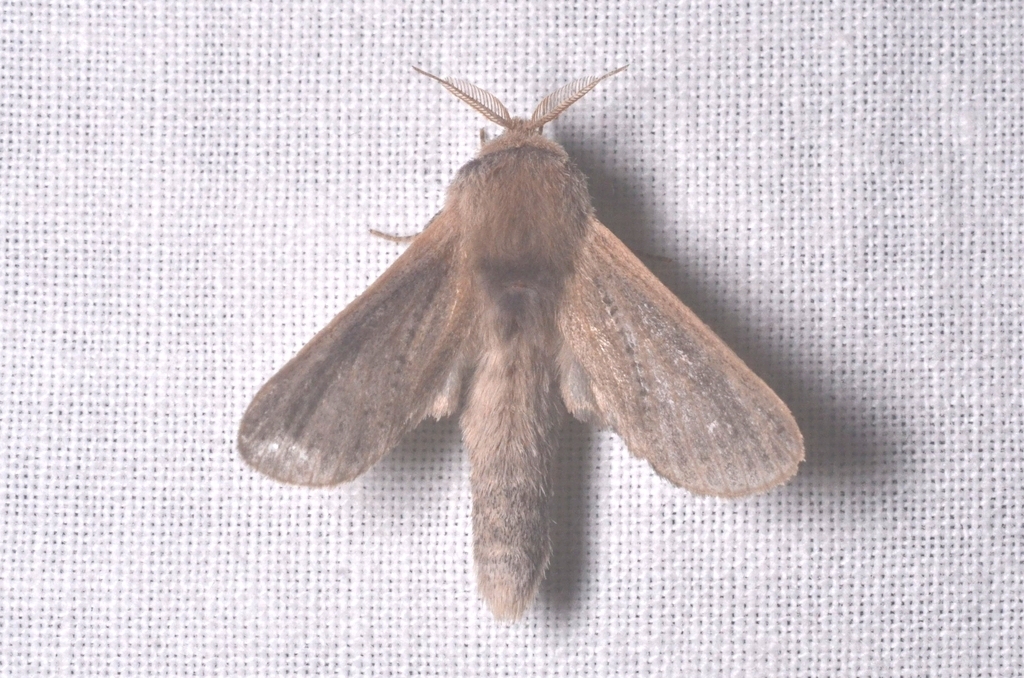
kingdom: Animalia
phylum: Arthropoda
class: Insecta
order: Lepidoptera
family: Cossidae
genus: Phragmataecia
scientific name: Phragmataecia castaneae
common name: Reed leopard
